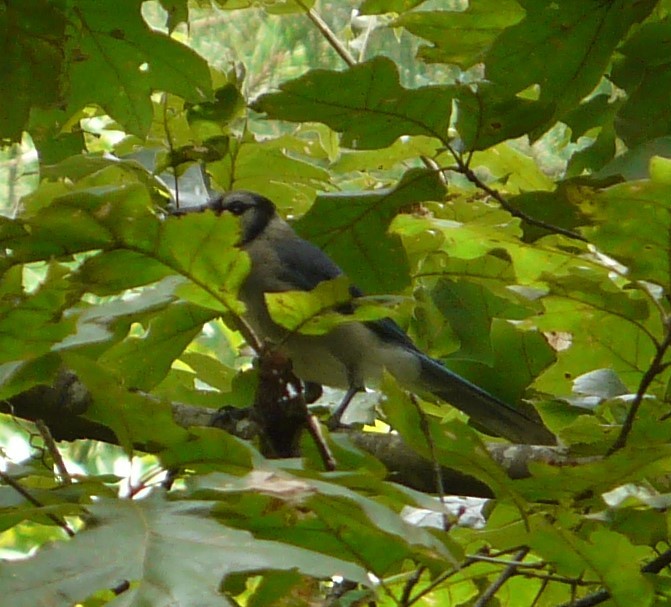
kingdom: Animalia
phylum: Chordata
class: Aves
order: Passeriformes
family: Corvidae
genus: Cyanocitta
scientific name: Cyanocitta cristata
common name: Blue jay
